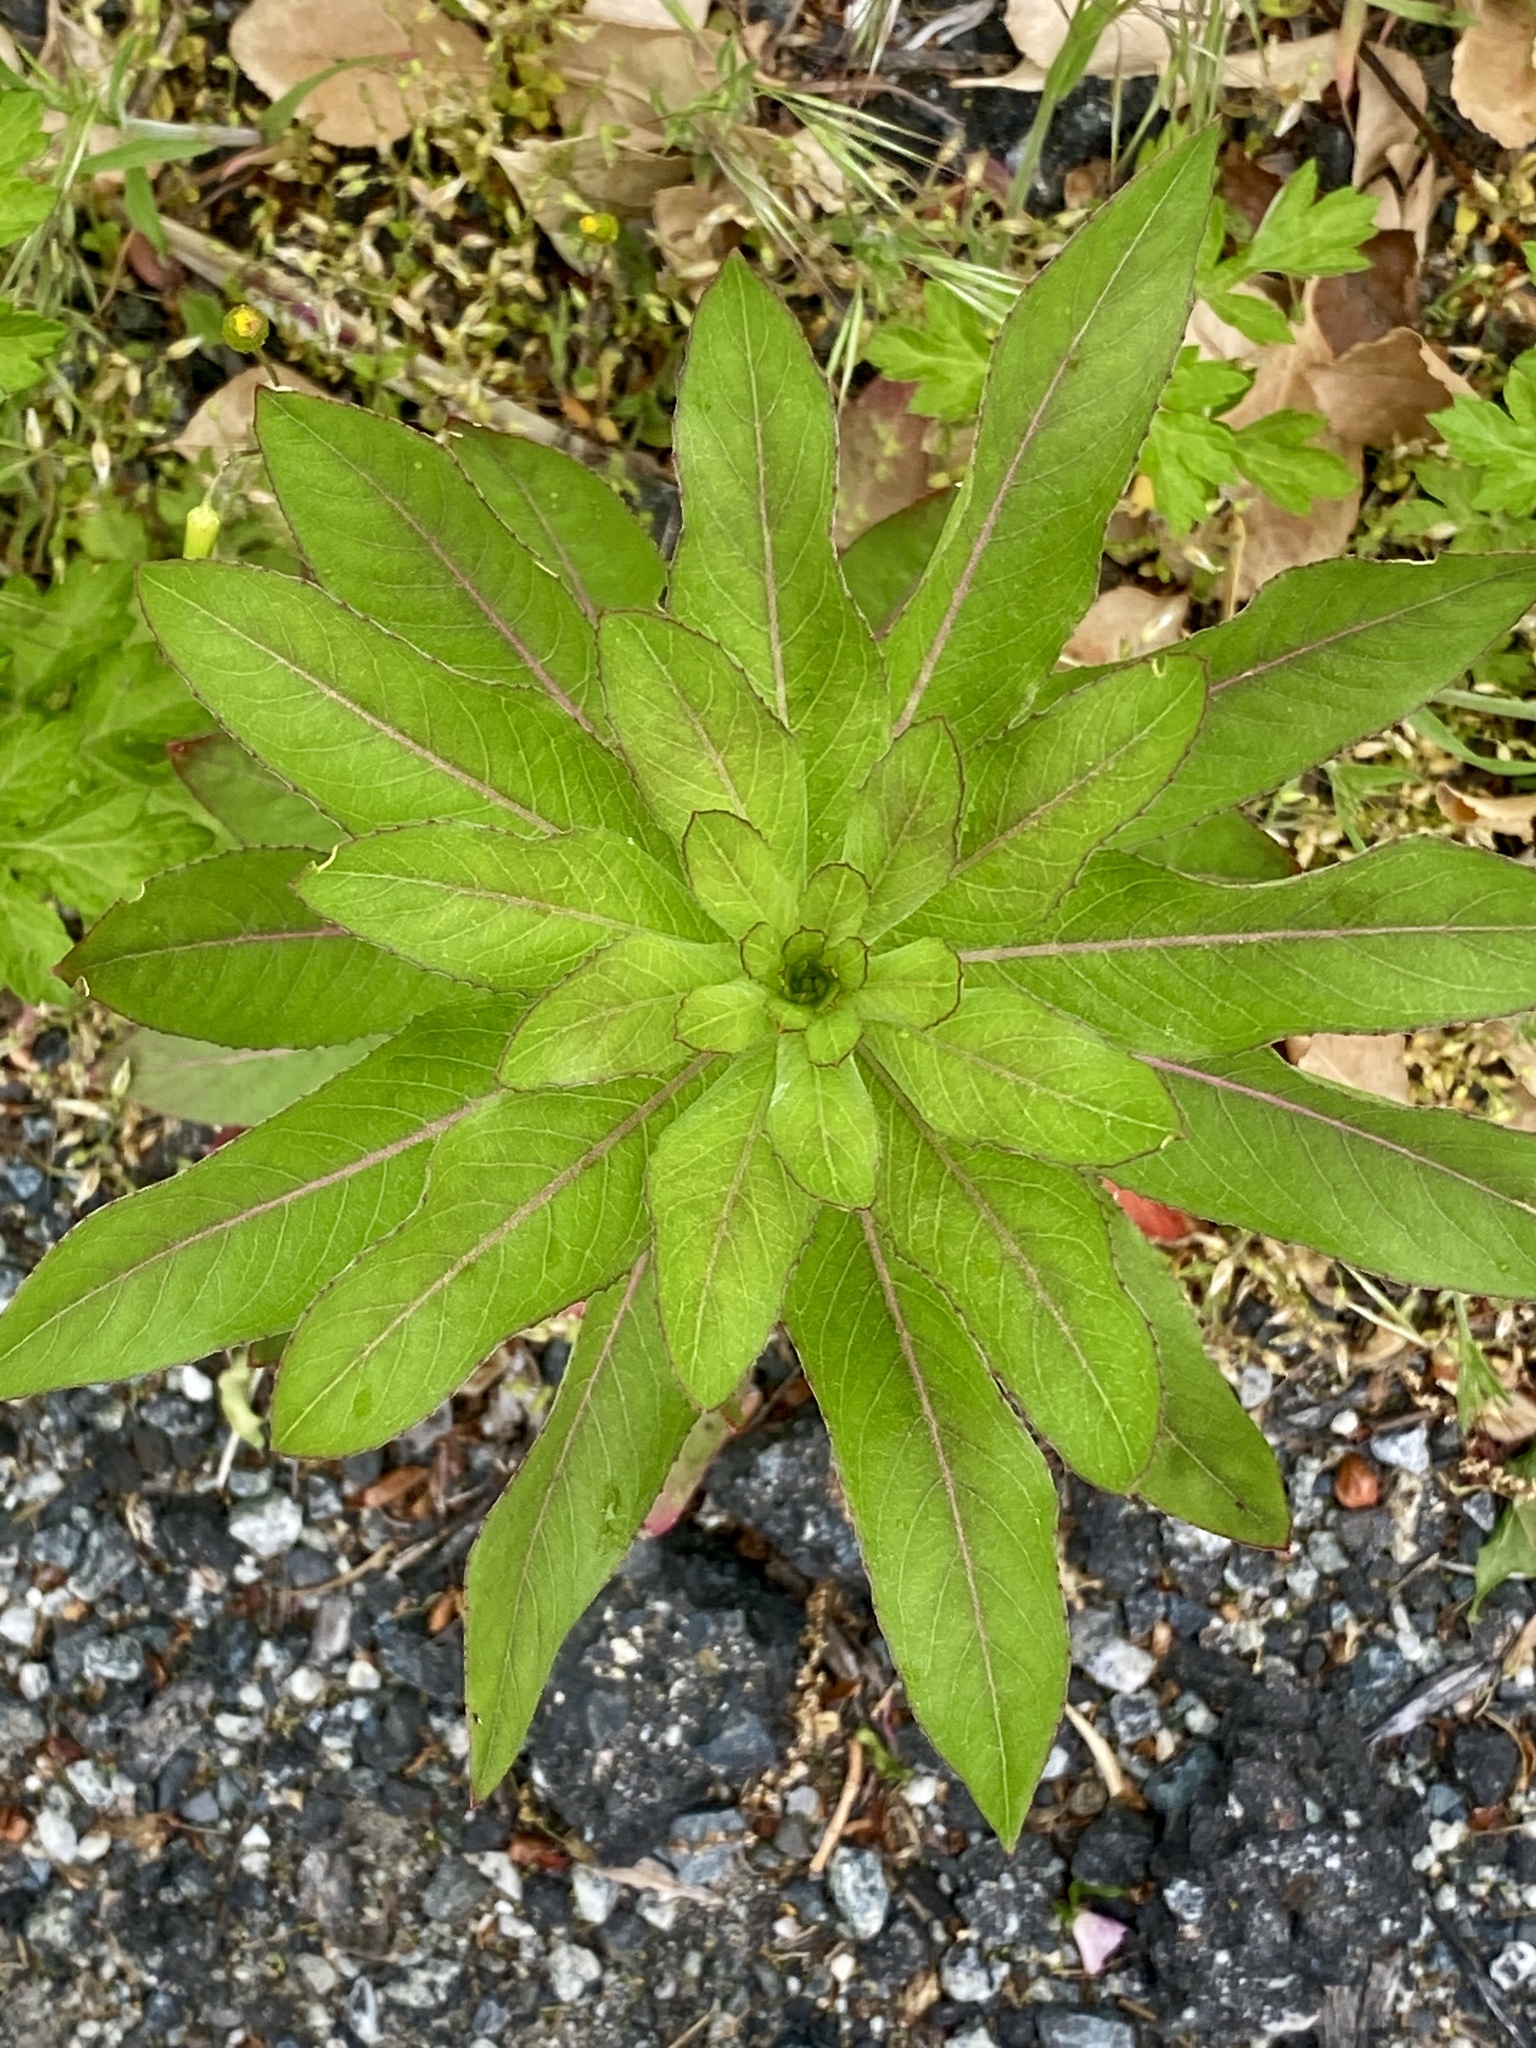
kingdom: Plantae
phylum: Tracheophyta
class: Magnoliopsida
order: Myrtales
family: Onagraceae
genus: Oenothera
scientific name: Oenothera biennis
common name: Common evening-primrose
